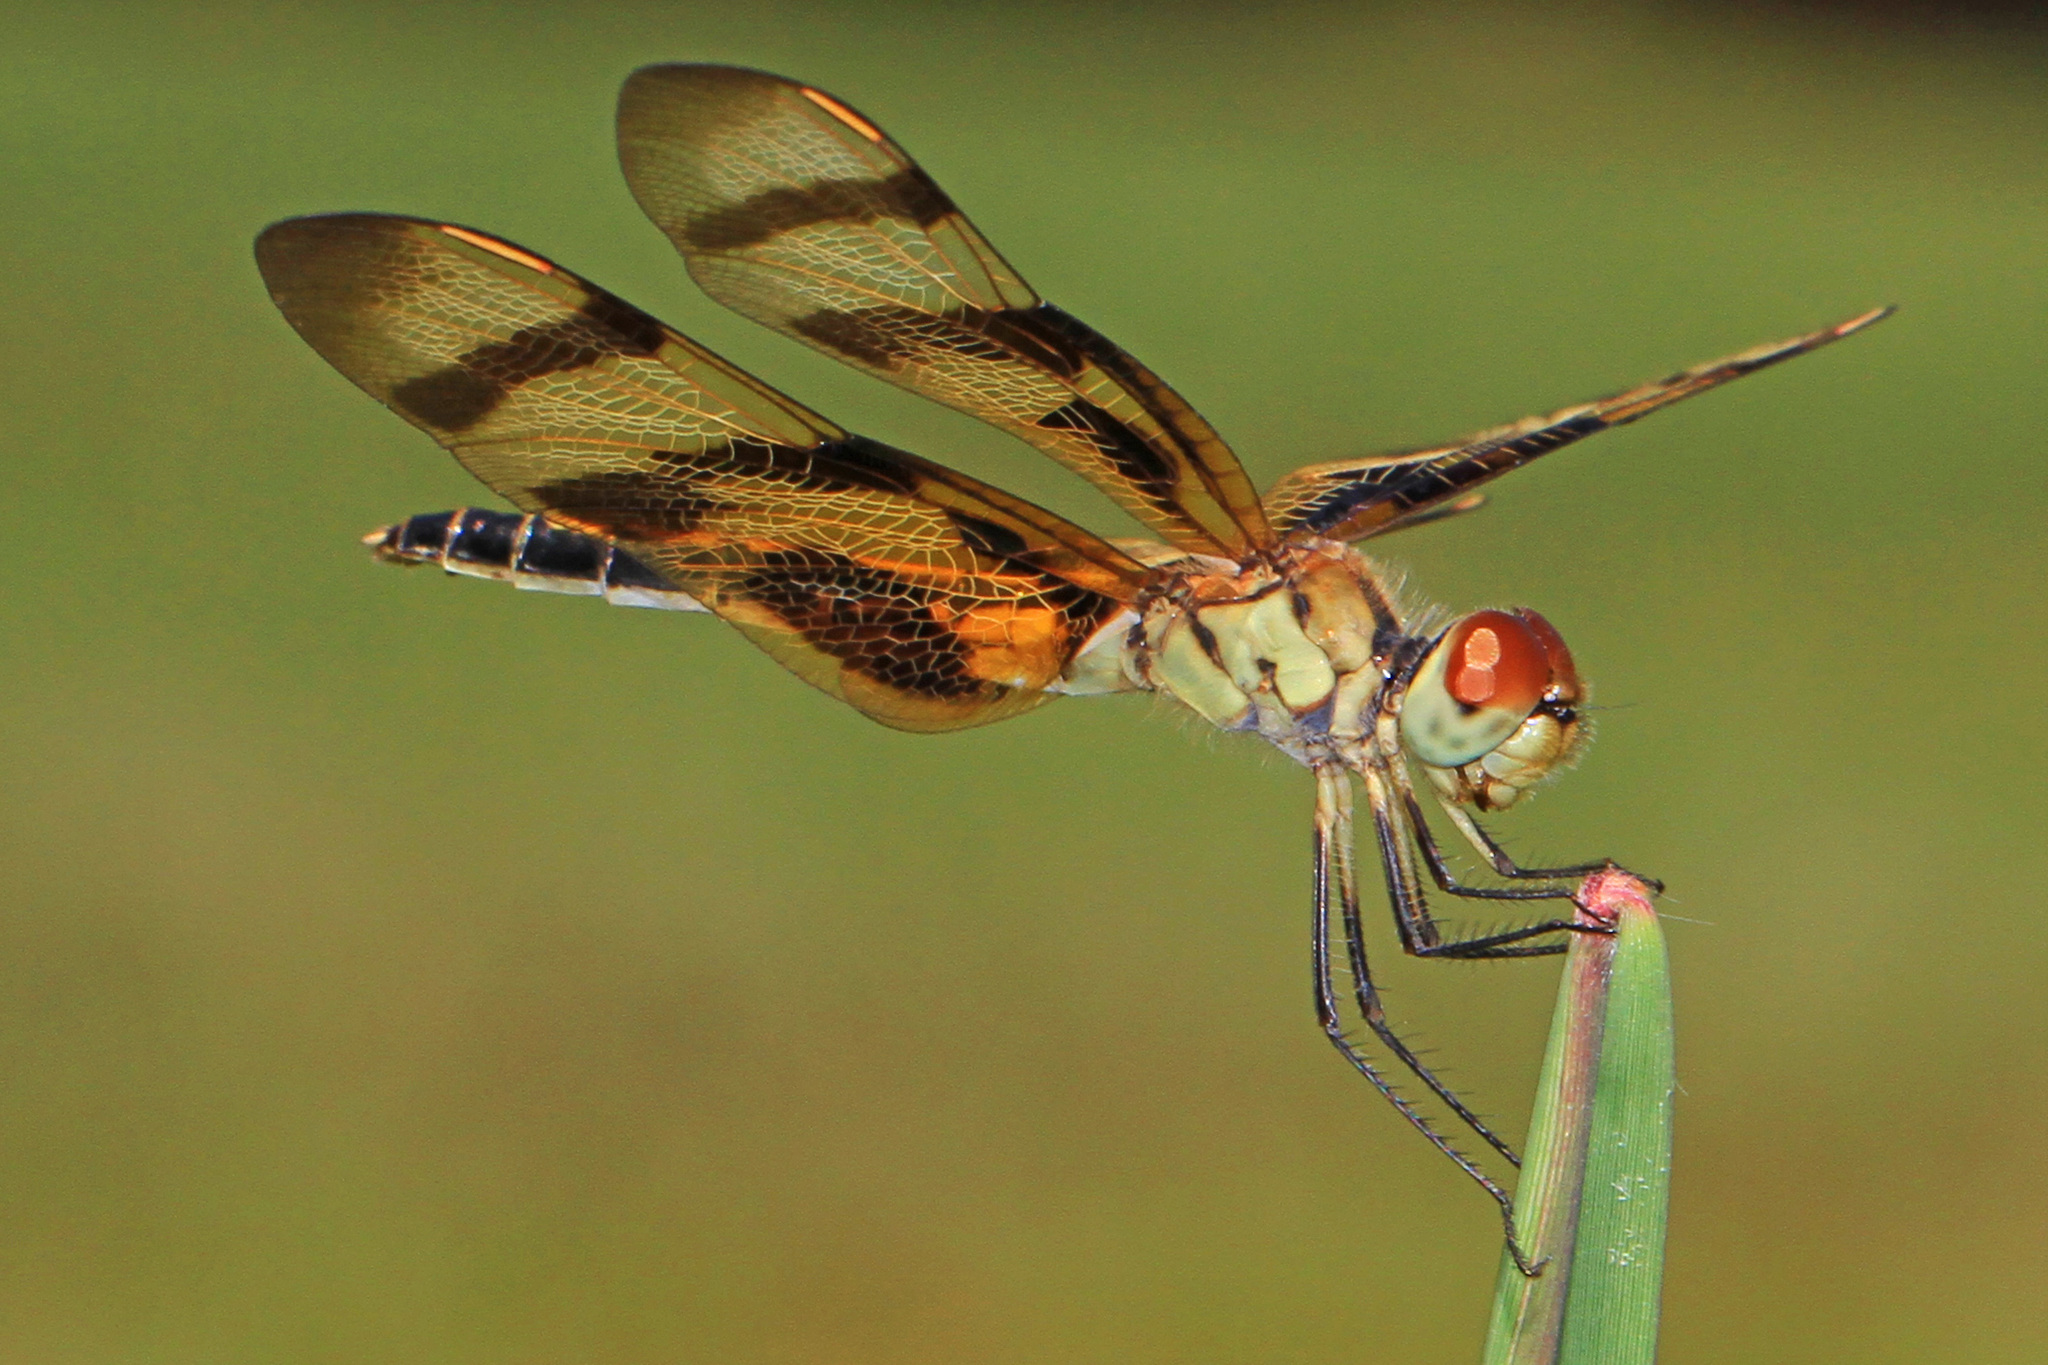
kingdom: Animalia
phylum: Arthropoda
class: Insecta
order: Odonata
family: Libellulidae
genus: Celithemis
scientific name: Celithemis eponina
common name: Halloween pennant
